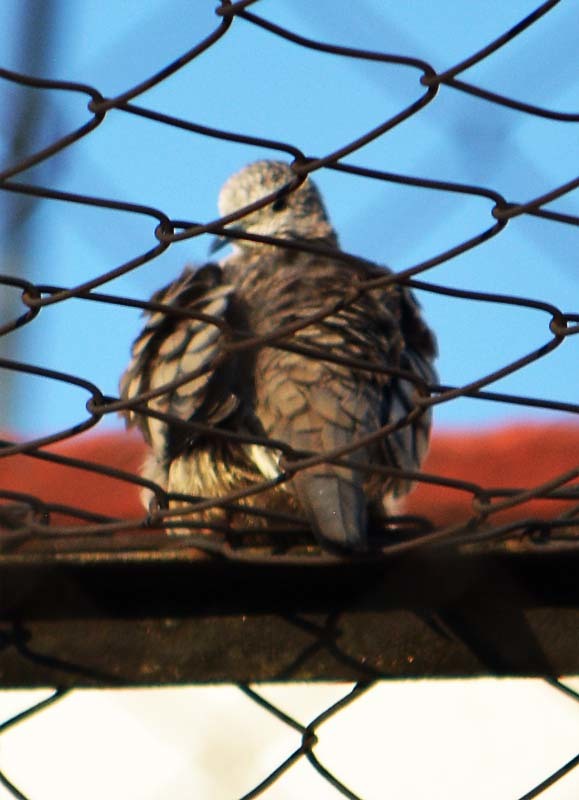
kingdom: Animalia
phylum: Chordata
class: Aves
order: Columbiformes
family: Columbidae
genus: Columbina
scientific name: Columbina inca
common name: Inca dove
